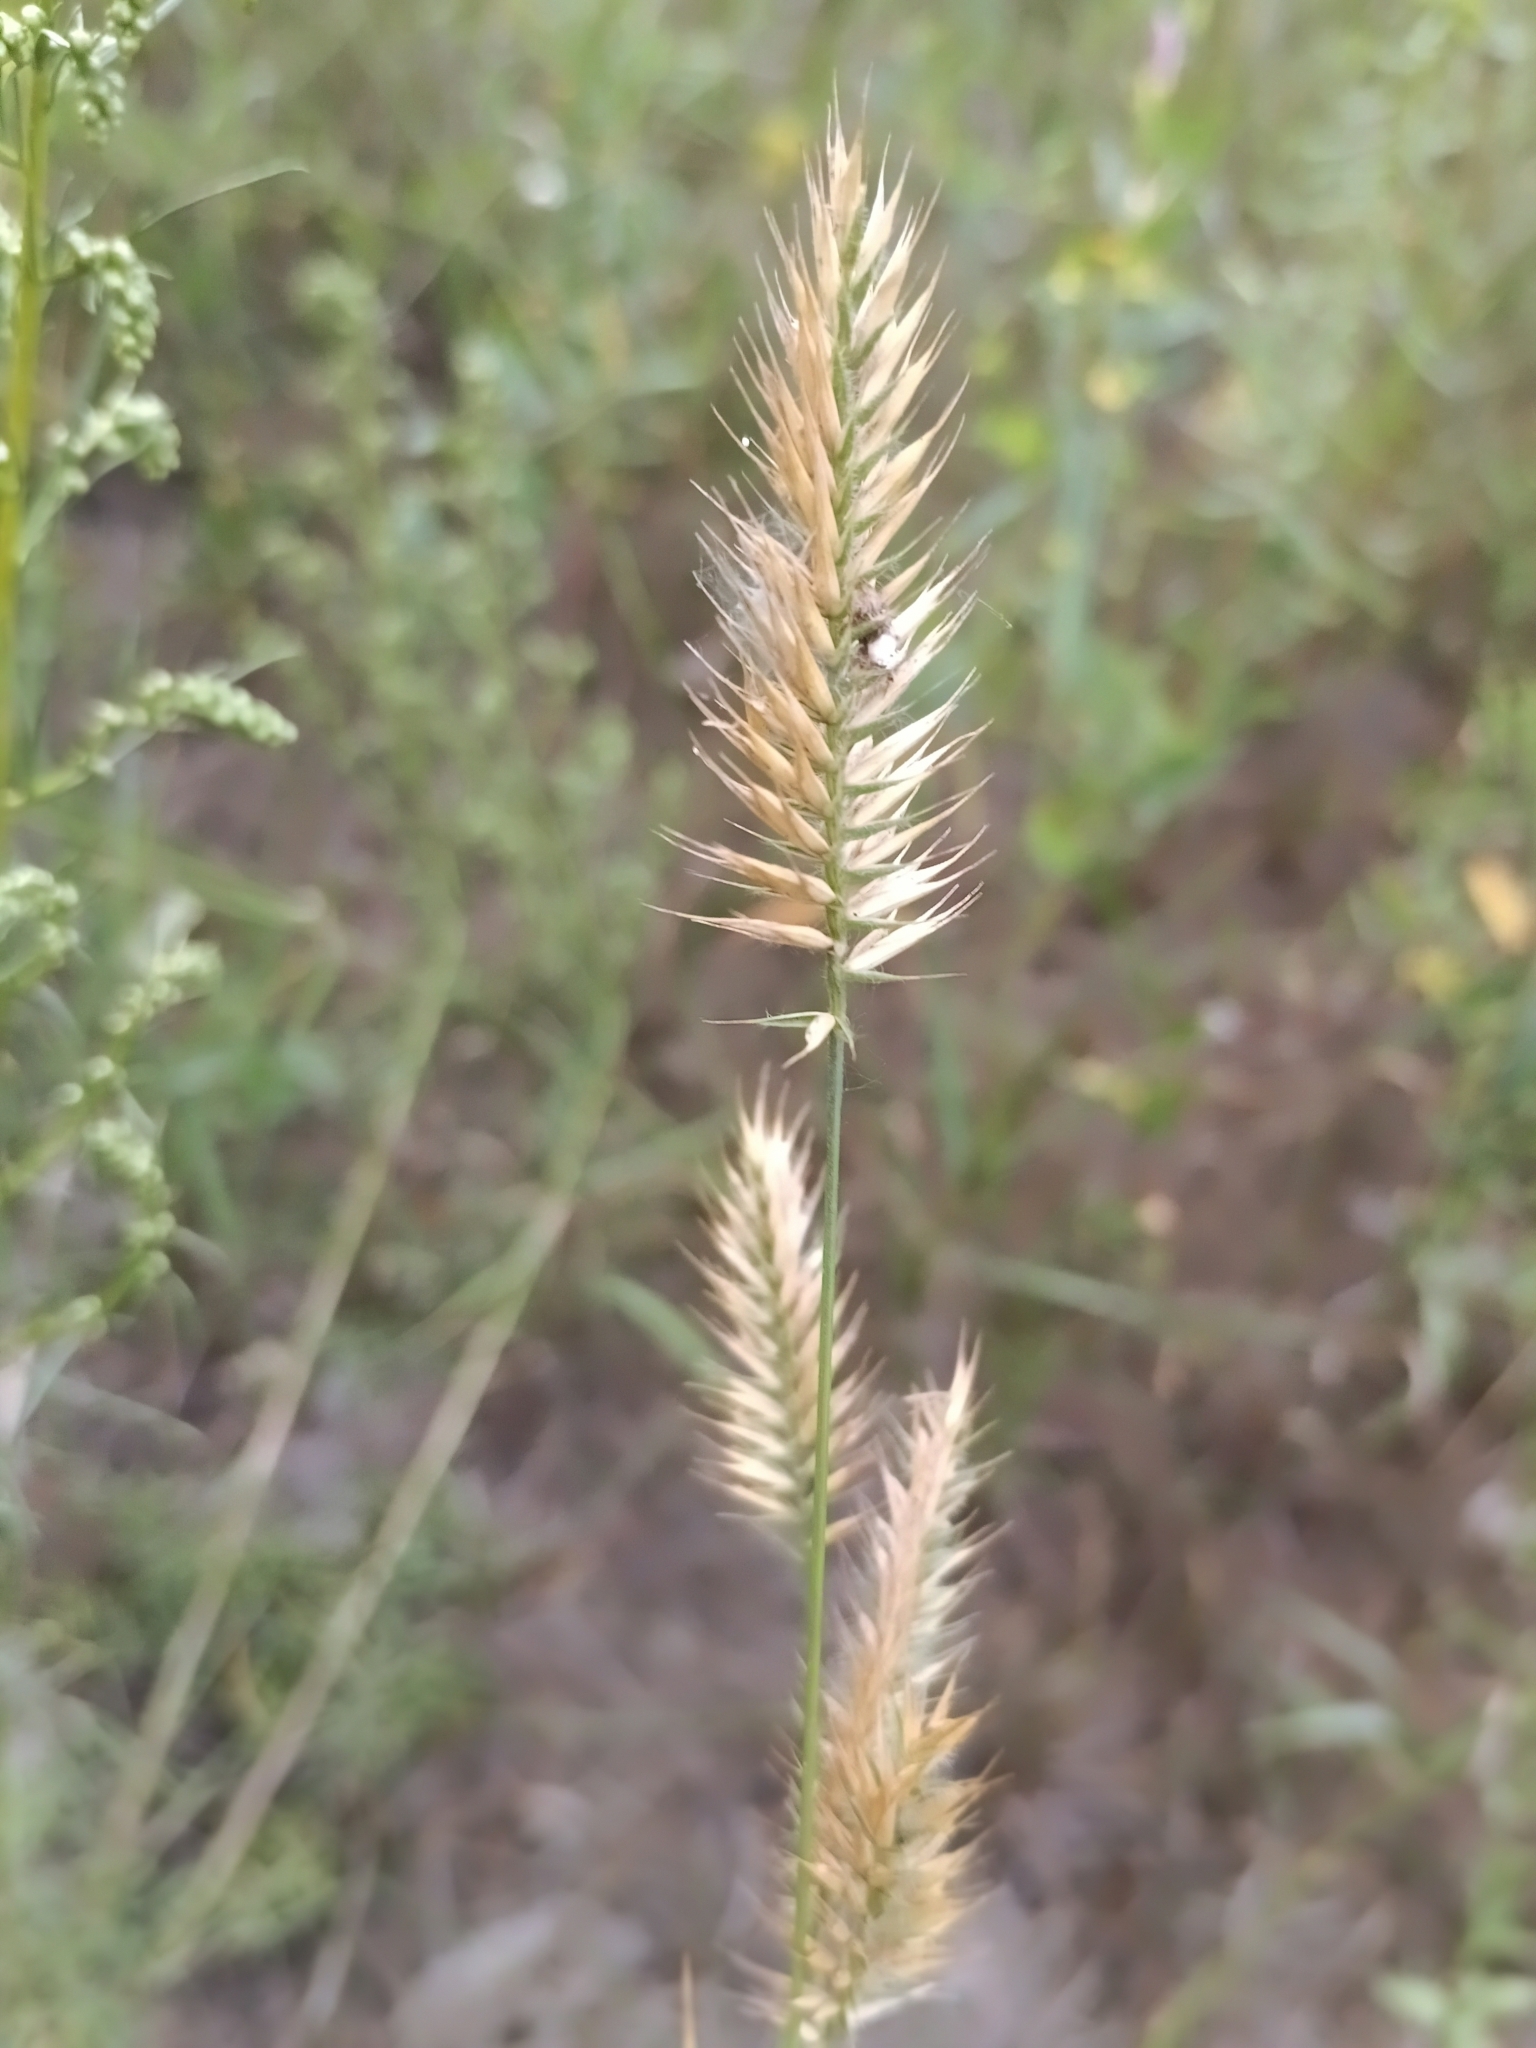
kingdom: Plantae
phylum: Tracheophyta
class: Liliopsida
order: Poales
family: Poaceae
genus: Agropyron
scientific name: Agropyron cristatum
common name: Crested wheatgrass
